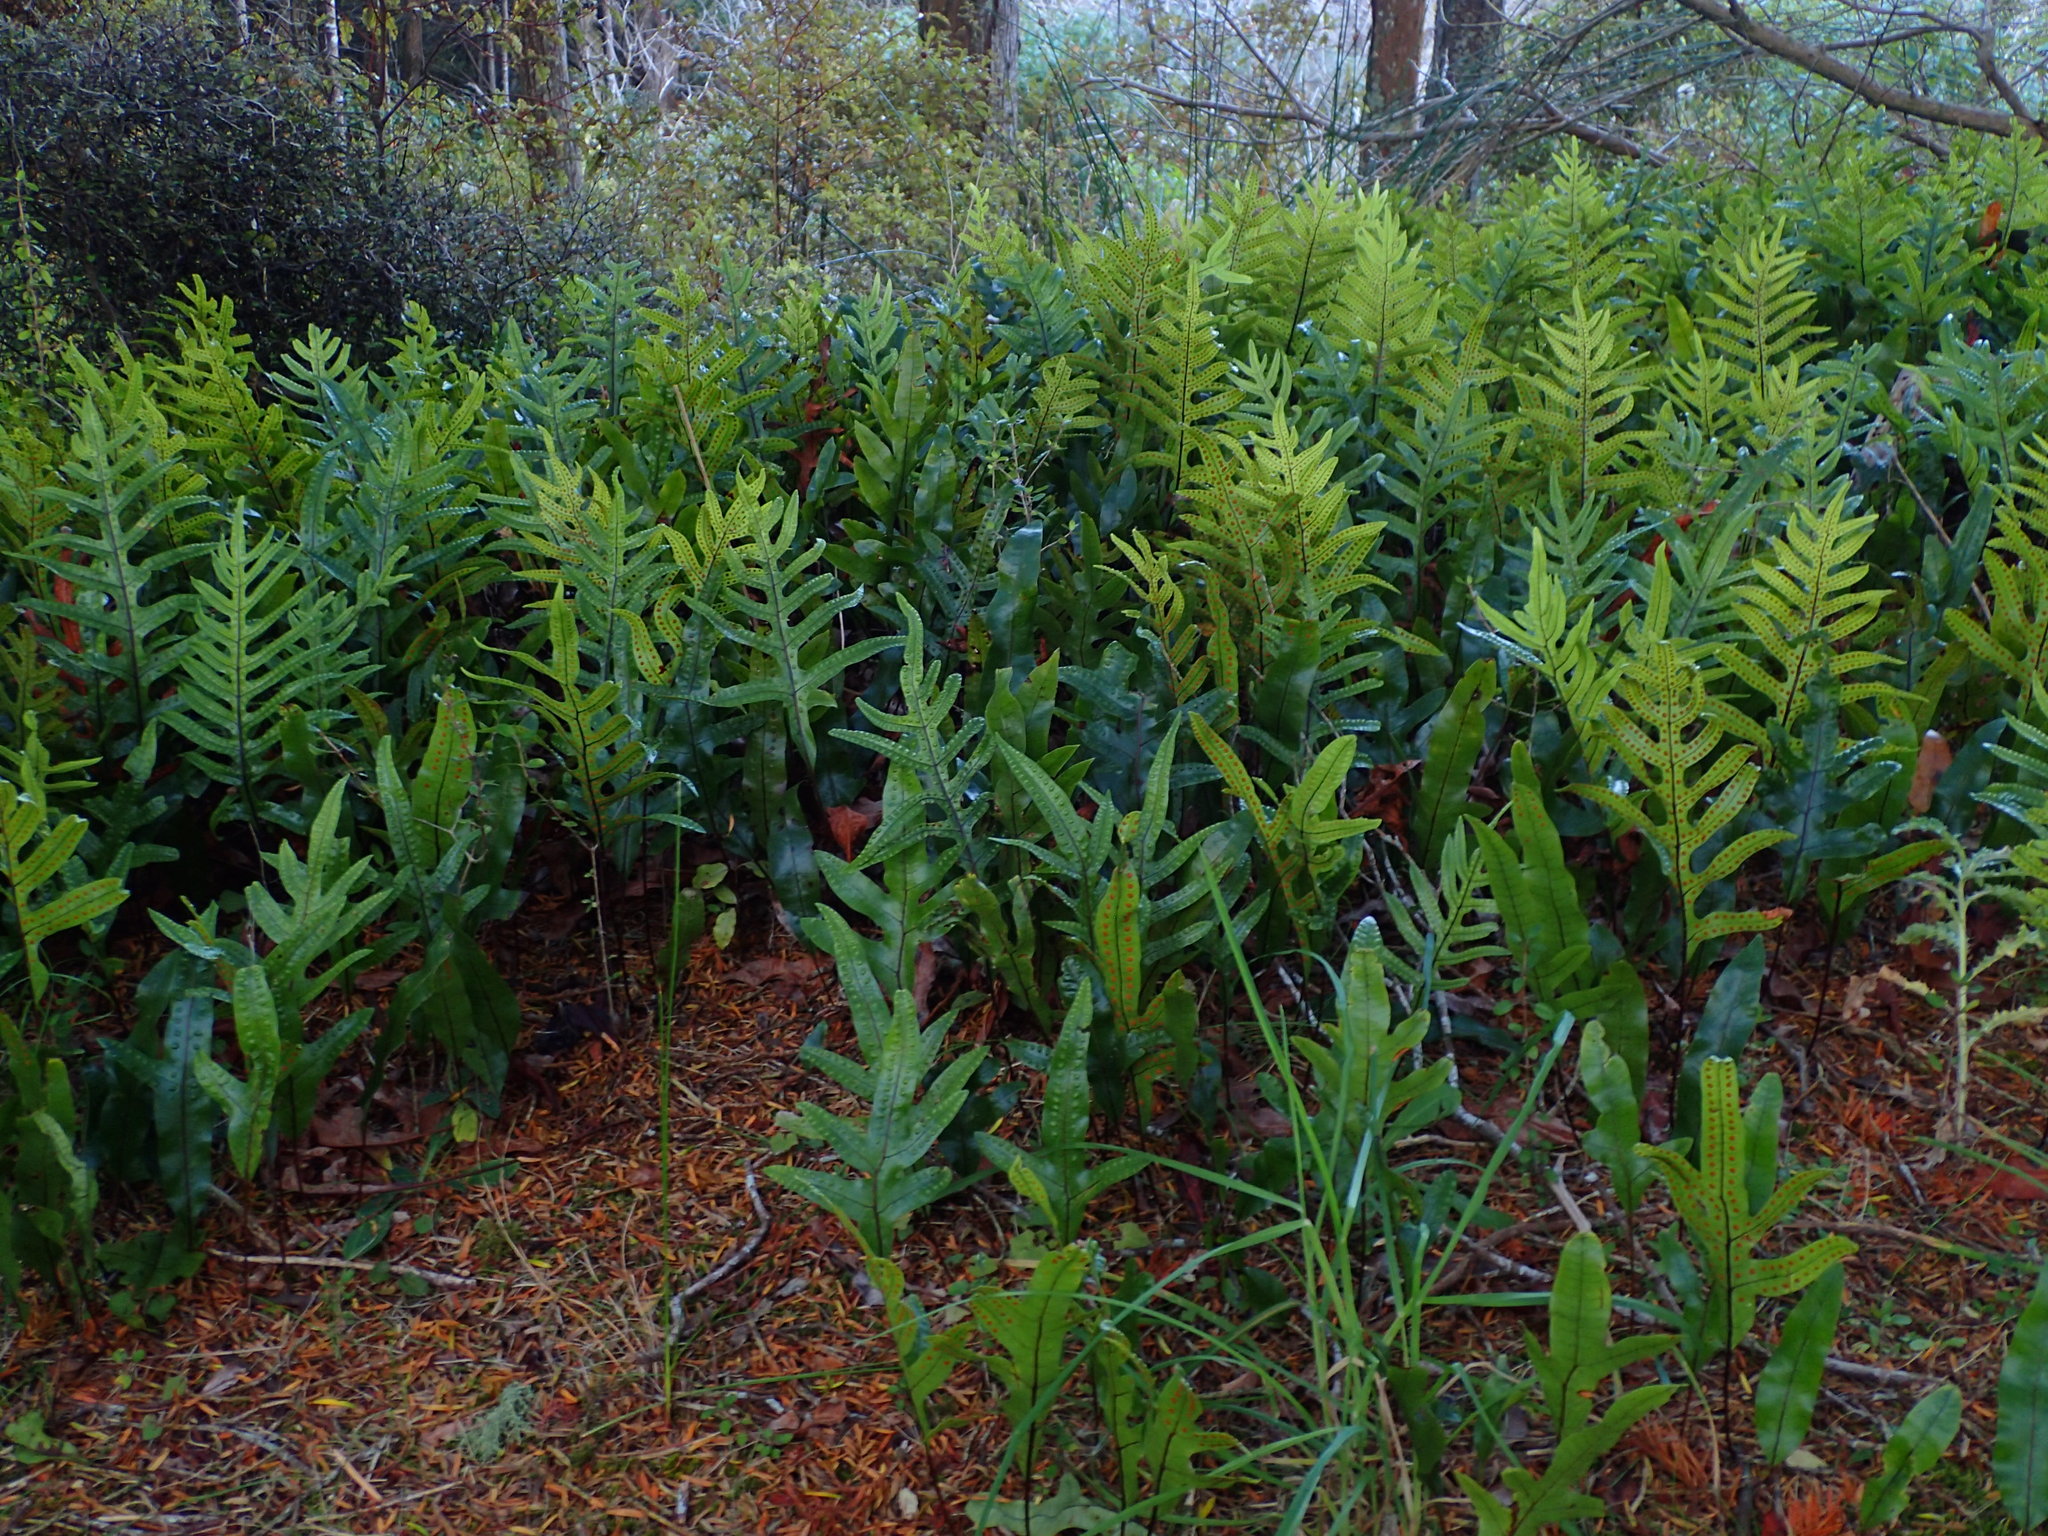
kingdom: Plantae
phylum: Tracheophyta
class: Polypodiopsida
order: Polypodiales
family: Polypodiaceae
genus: Lecanopteris
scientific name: Lecanopteris pustulata
